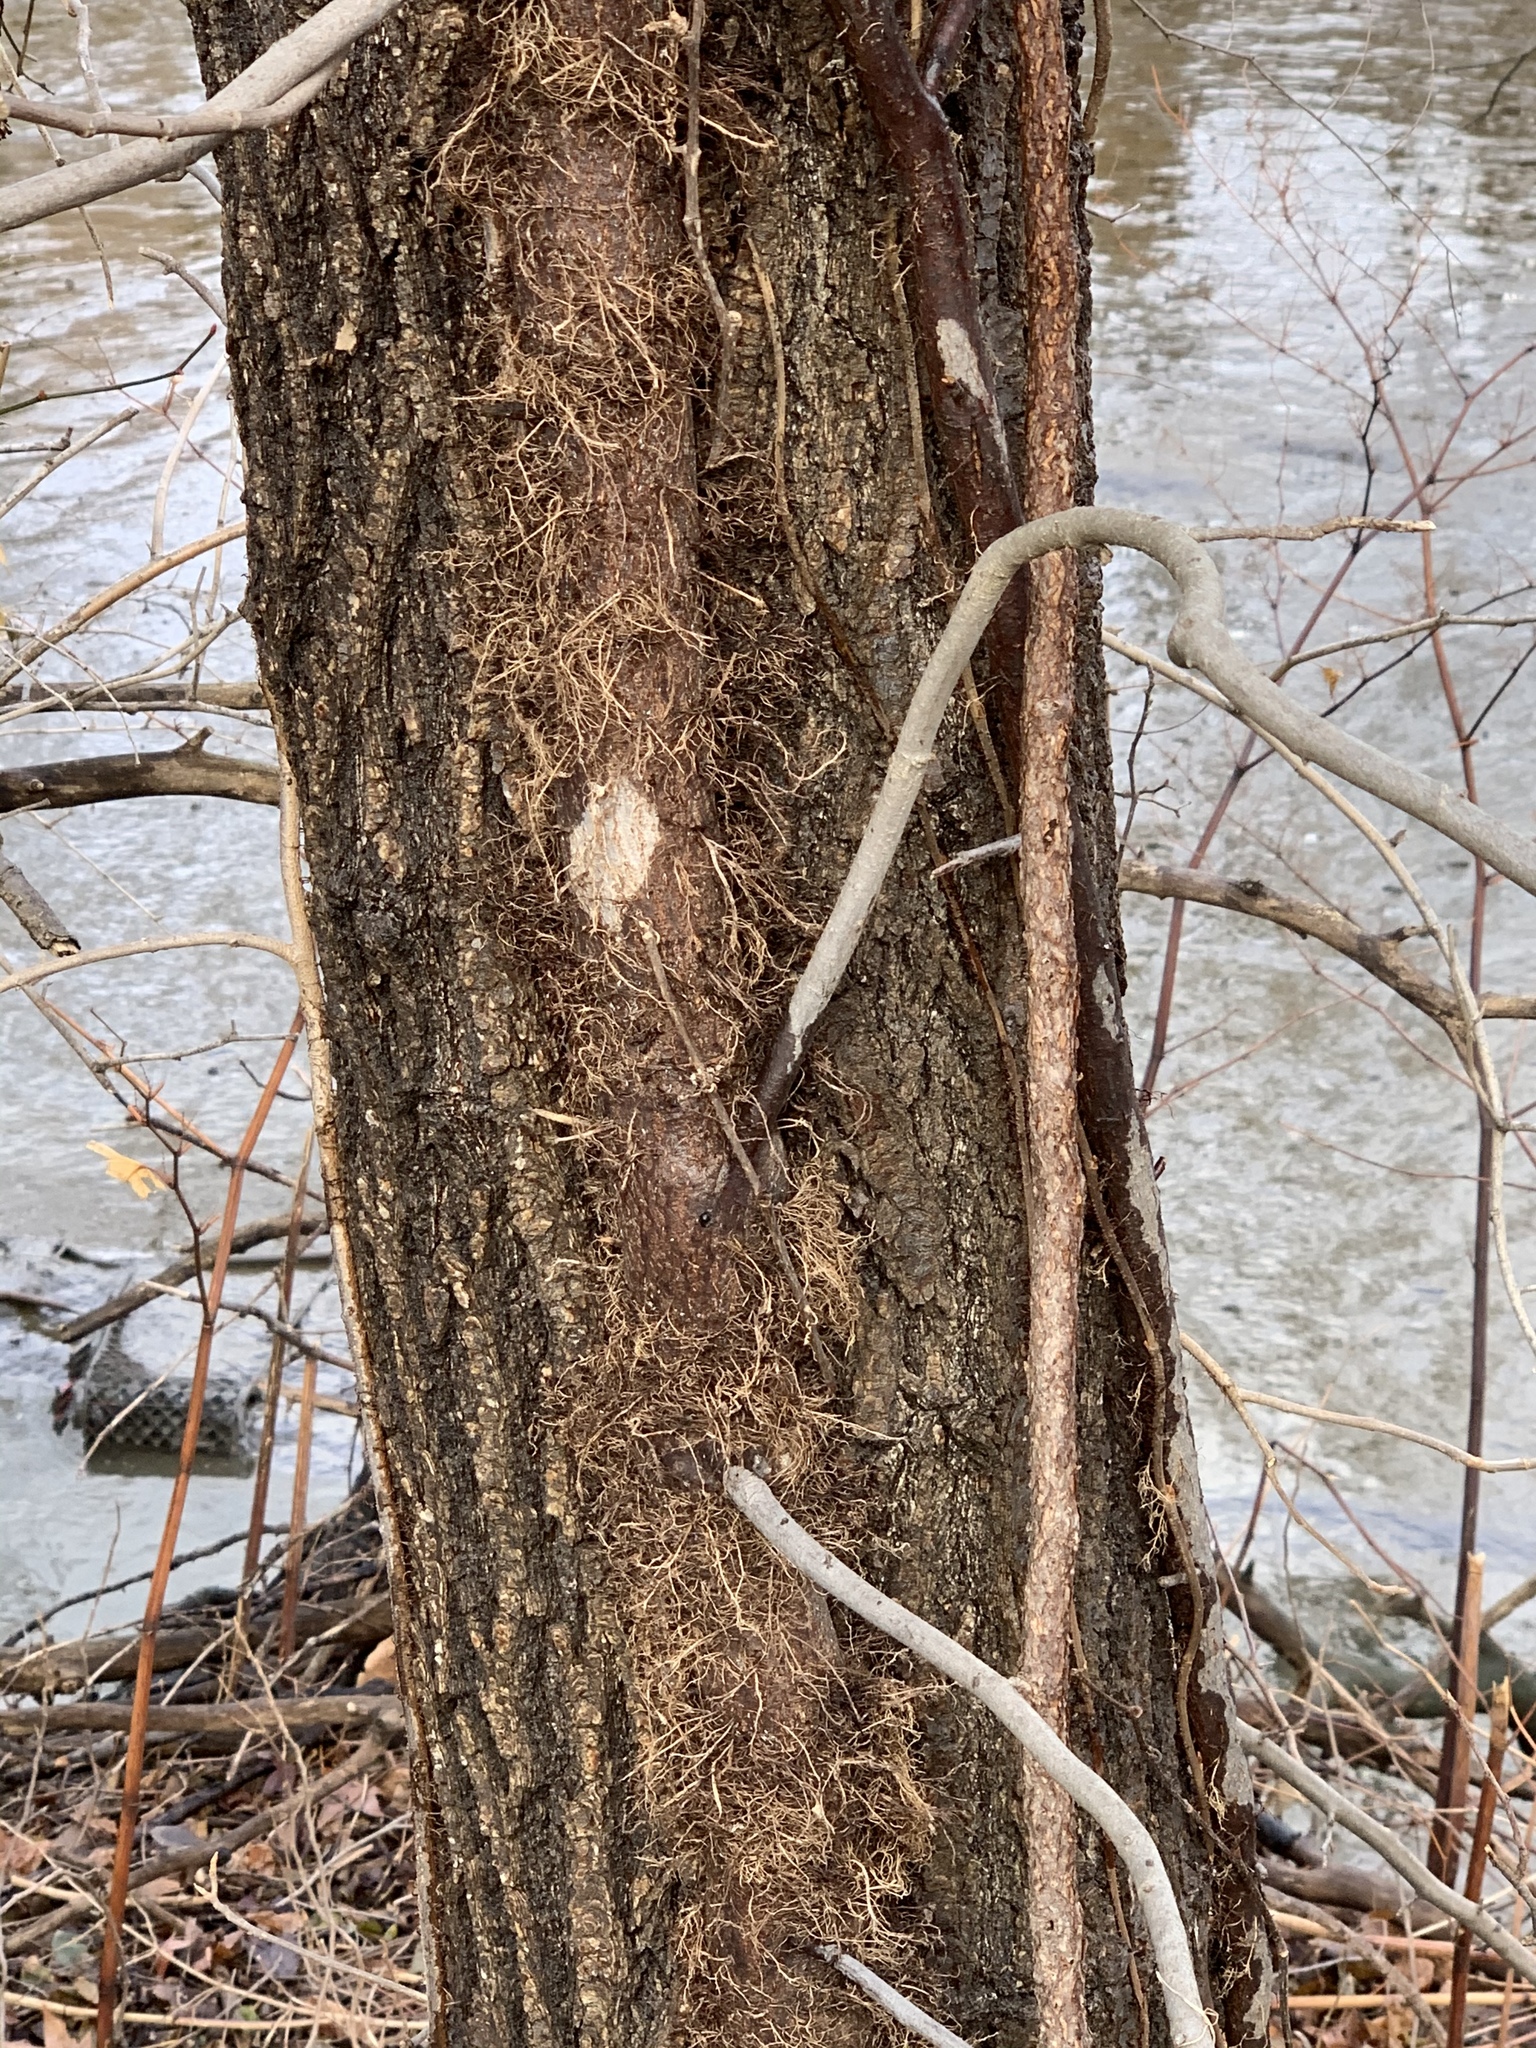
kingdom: Plantae
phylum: Tracheophyta
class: Magnoliopsida
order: Sapindales
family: Anacardiaceae
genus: Toxicodendron
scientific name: Toxicodendron radicans
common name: Poison ivy
